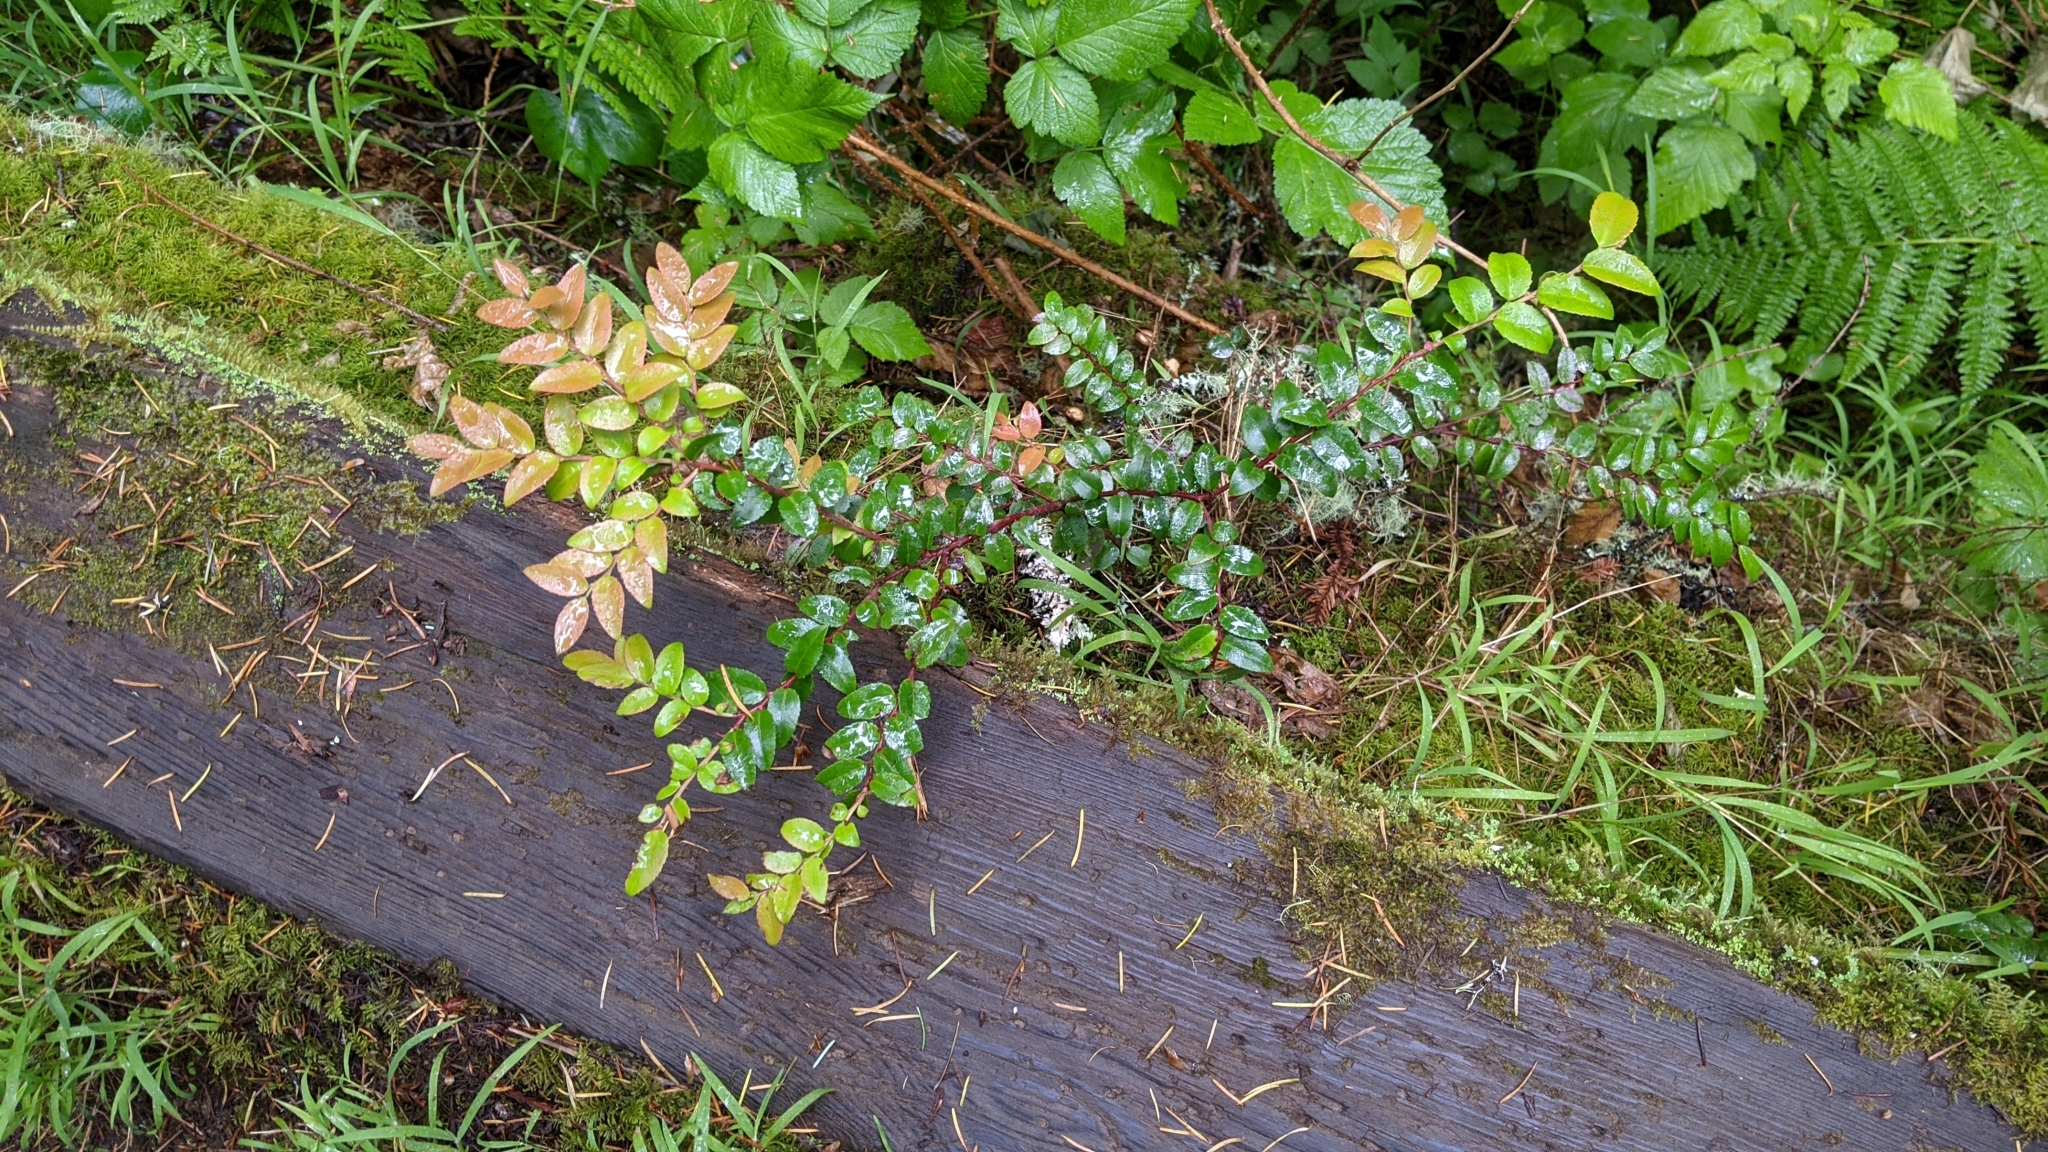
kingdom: Plantae
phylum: Tracheophyta
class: Magnoliopsida
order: Ericales
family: Ericaceae
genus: Vaccinium
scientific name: Vaccinium ovatum
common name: California-huckleberry
